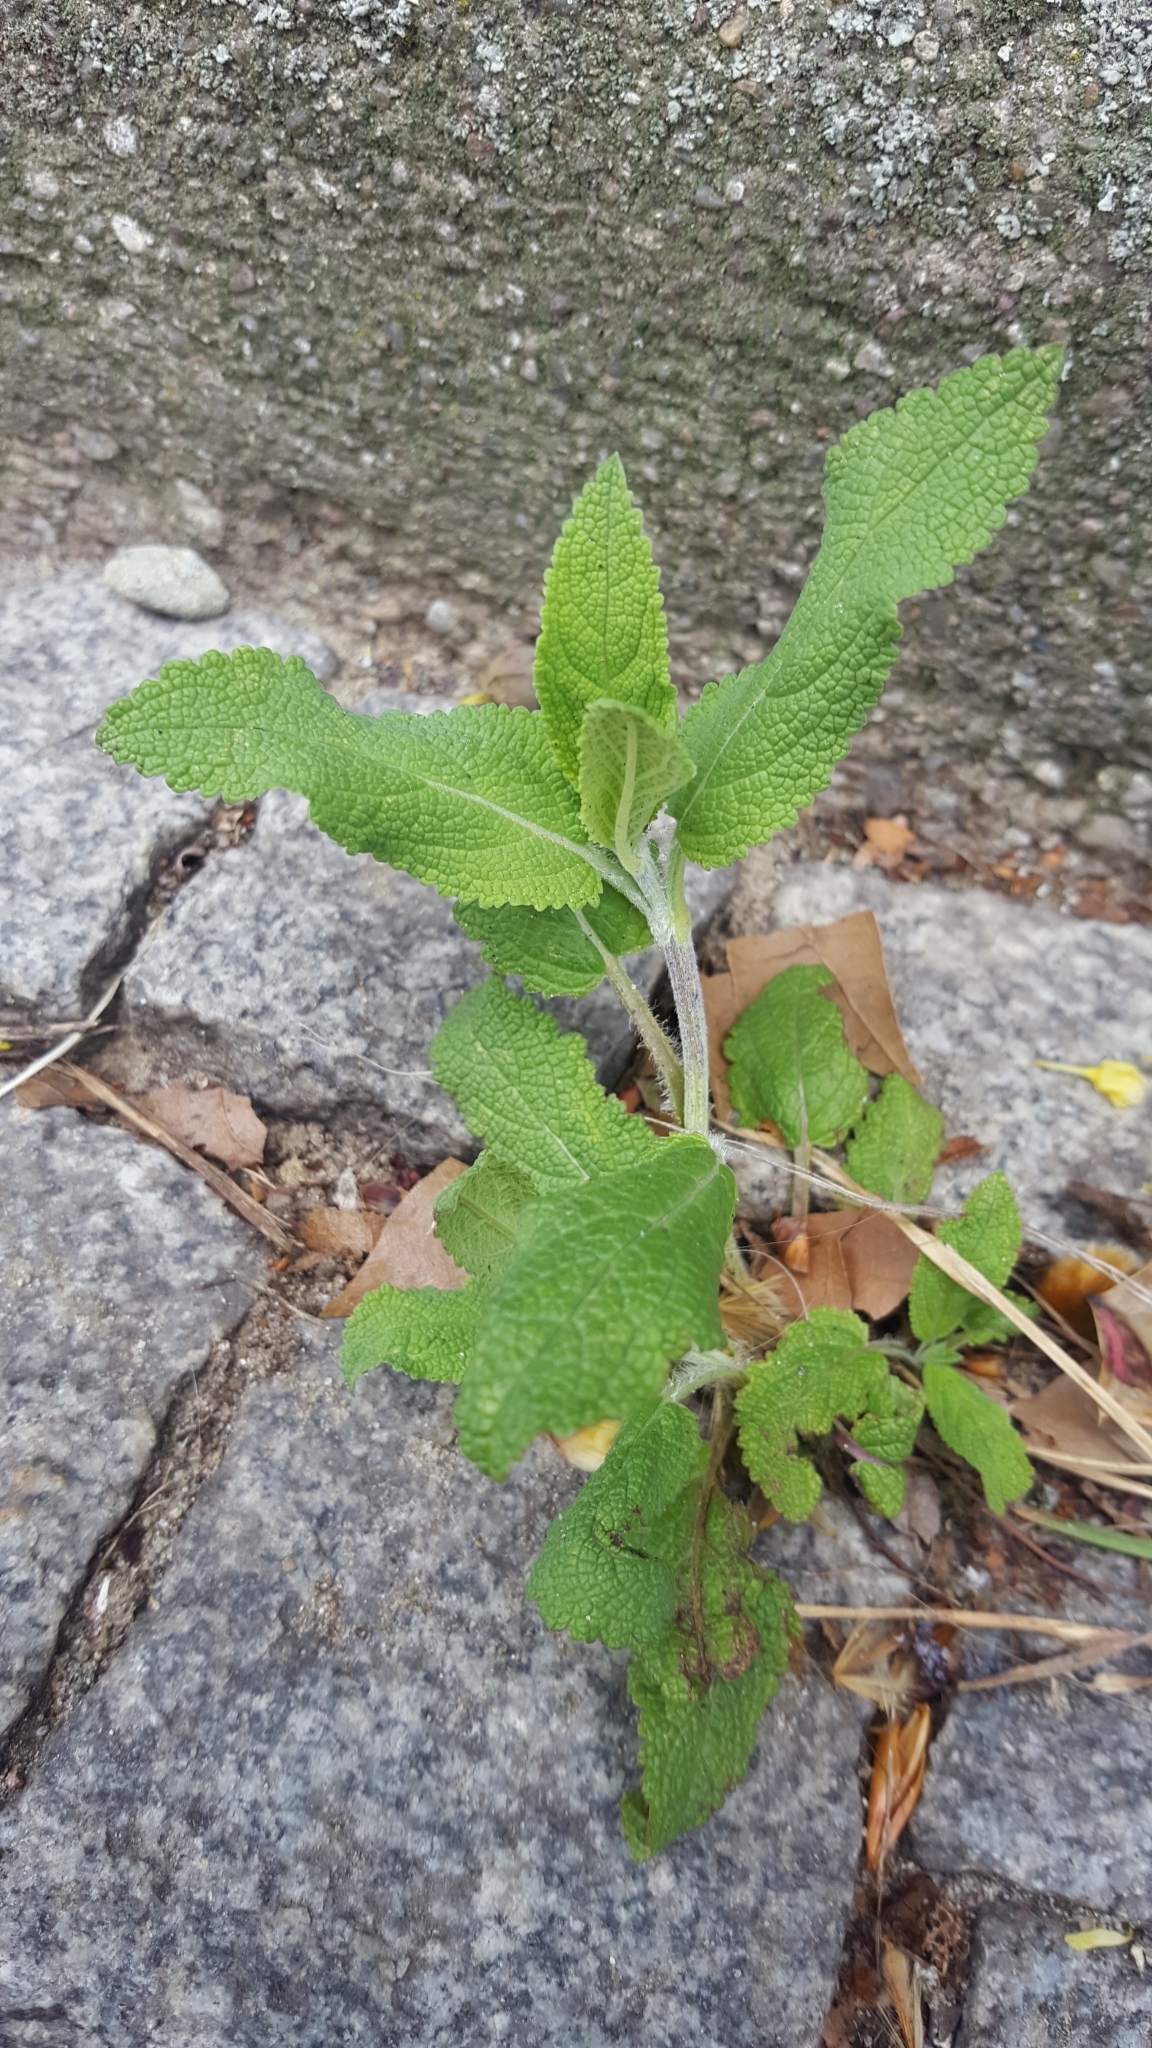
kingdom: Plantae
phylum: Tracheophyta
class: Magnoliopsida
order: Lamiales
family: Lamiaceae
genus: Salvia
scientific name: Salvia officinalis
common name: Sage
